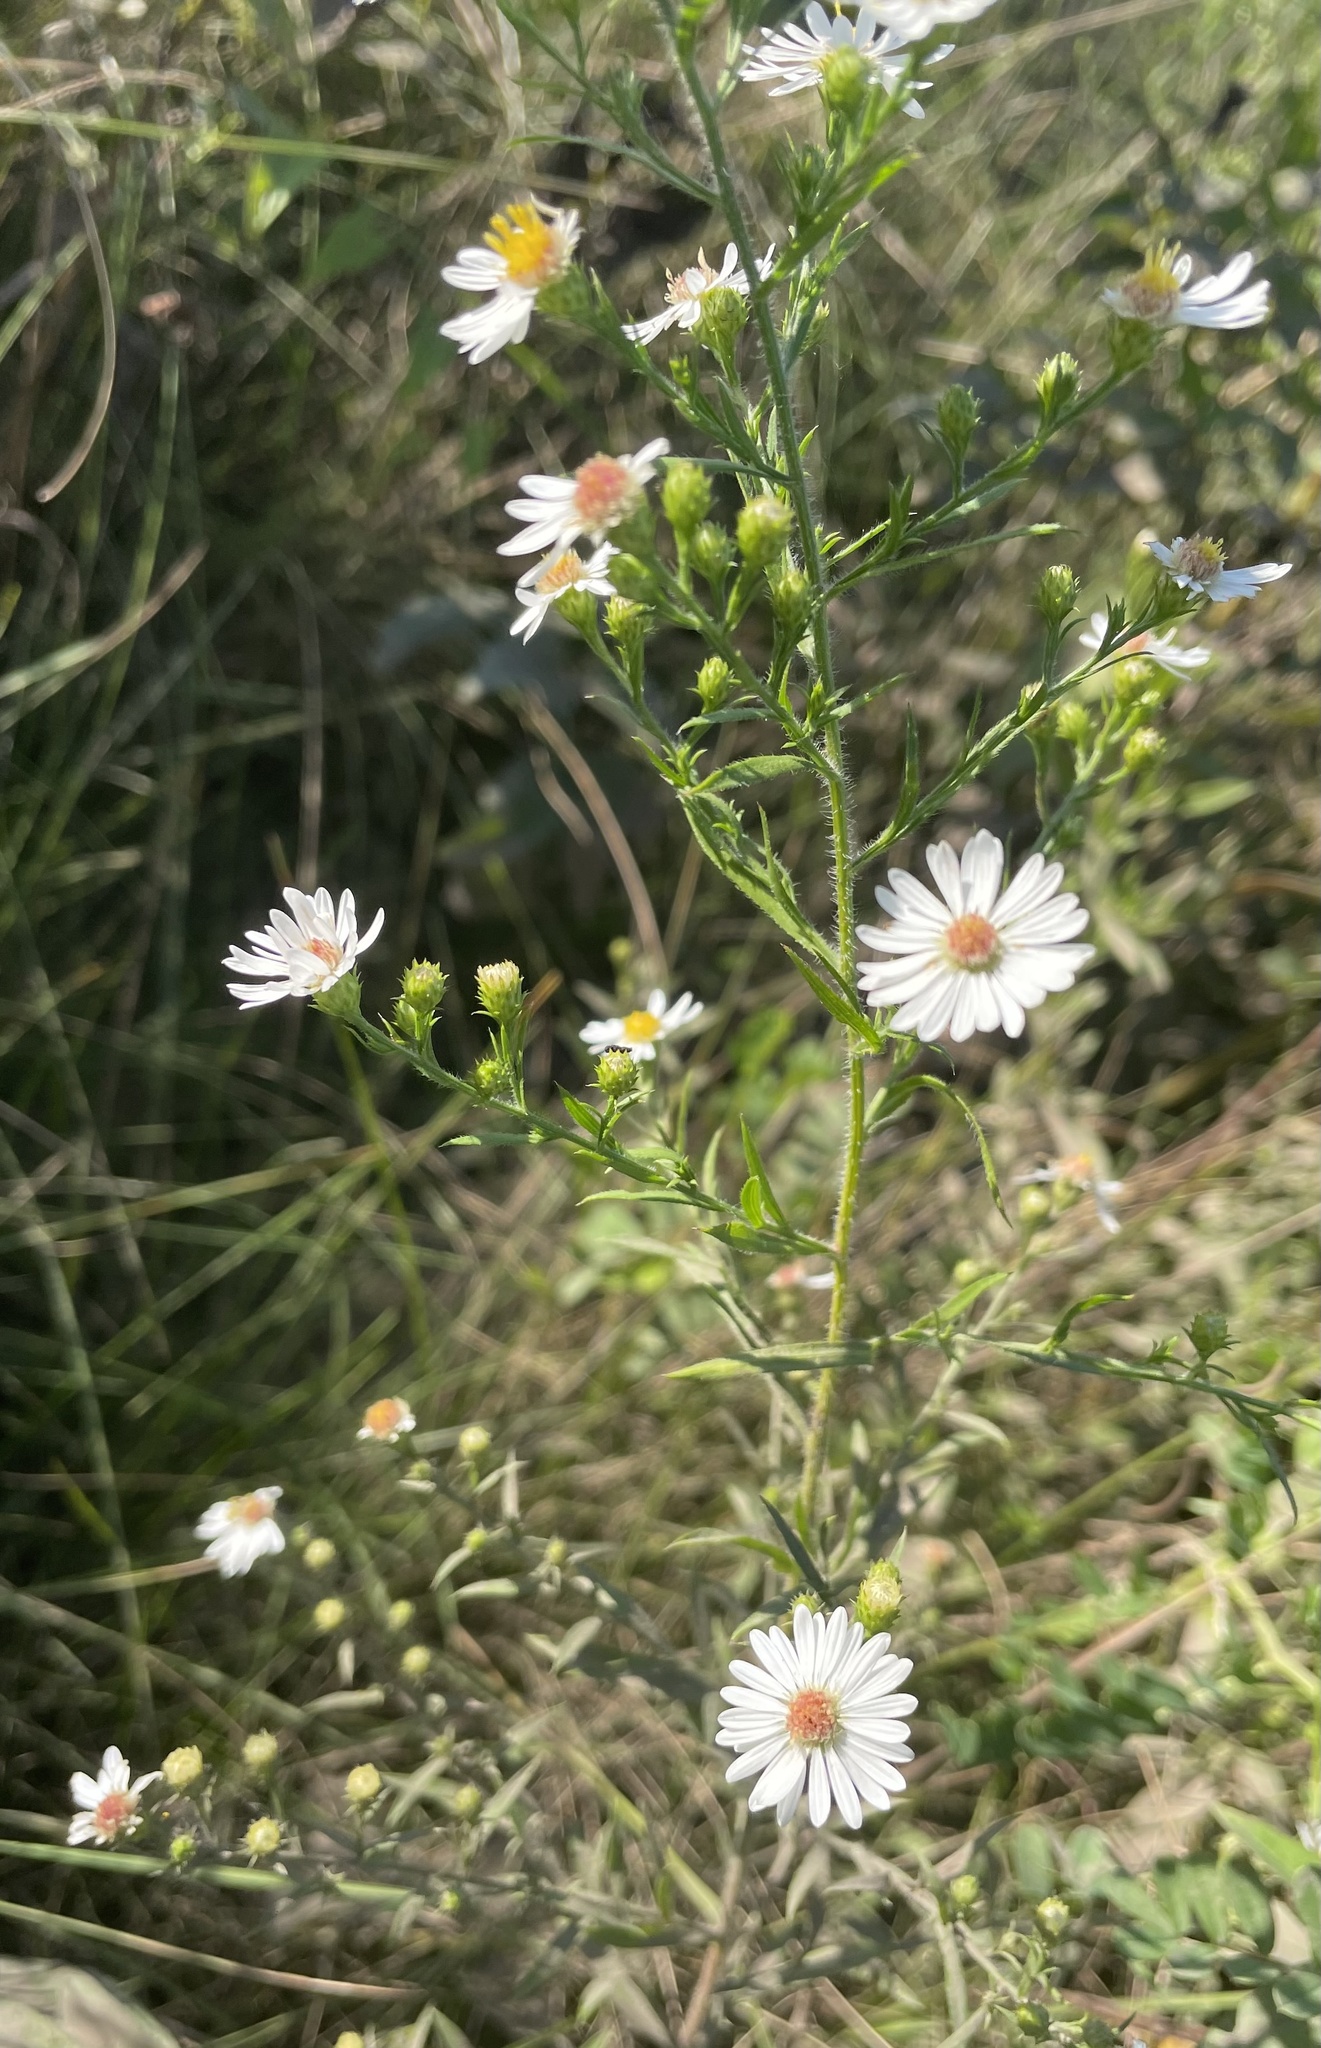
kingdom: Plantae
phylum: Tracheophyta
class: Magnoliopsida
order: Asterales
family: Asteraceae
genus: Symphyotrichum
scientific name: Symphyotrichum pilosum
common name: Awl aster
